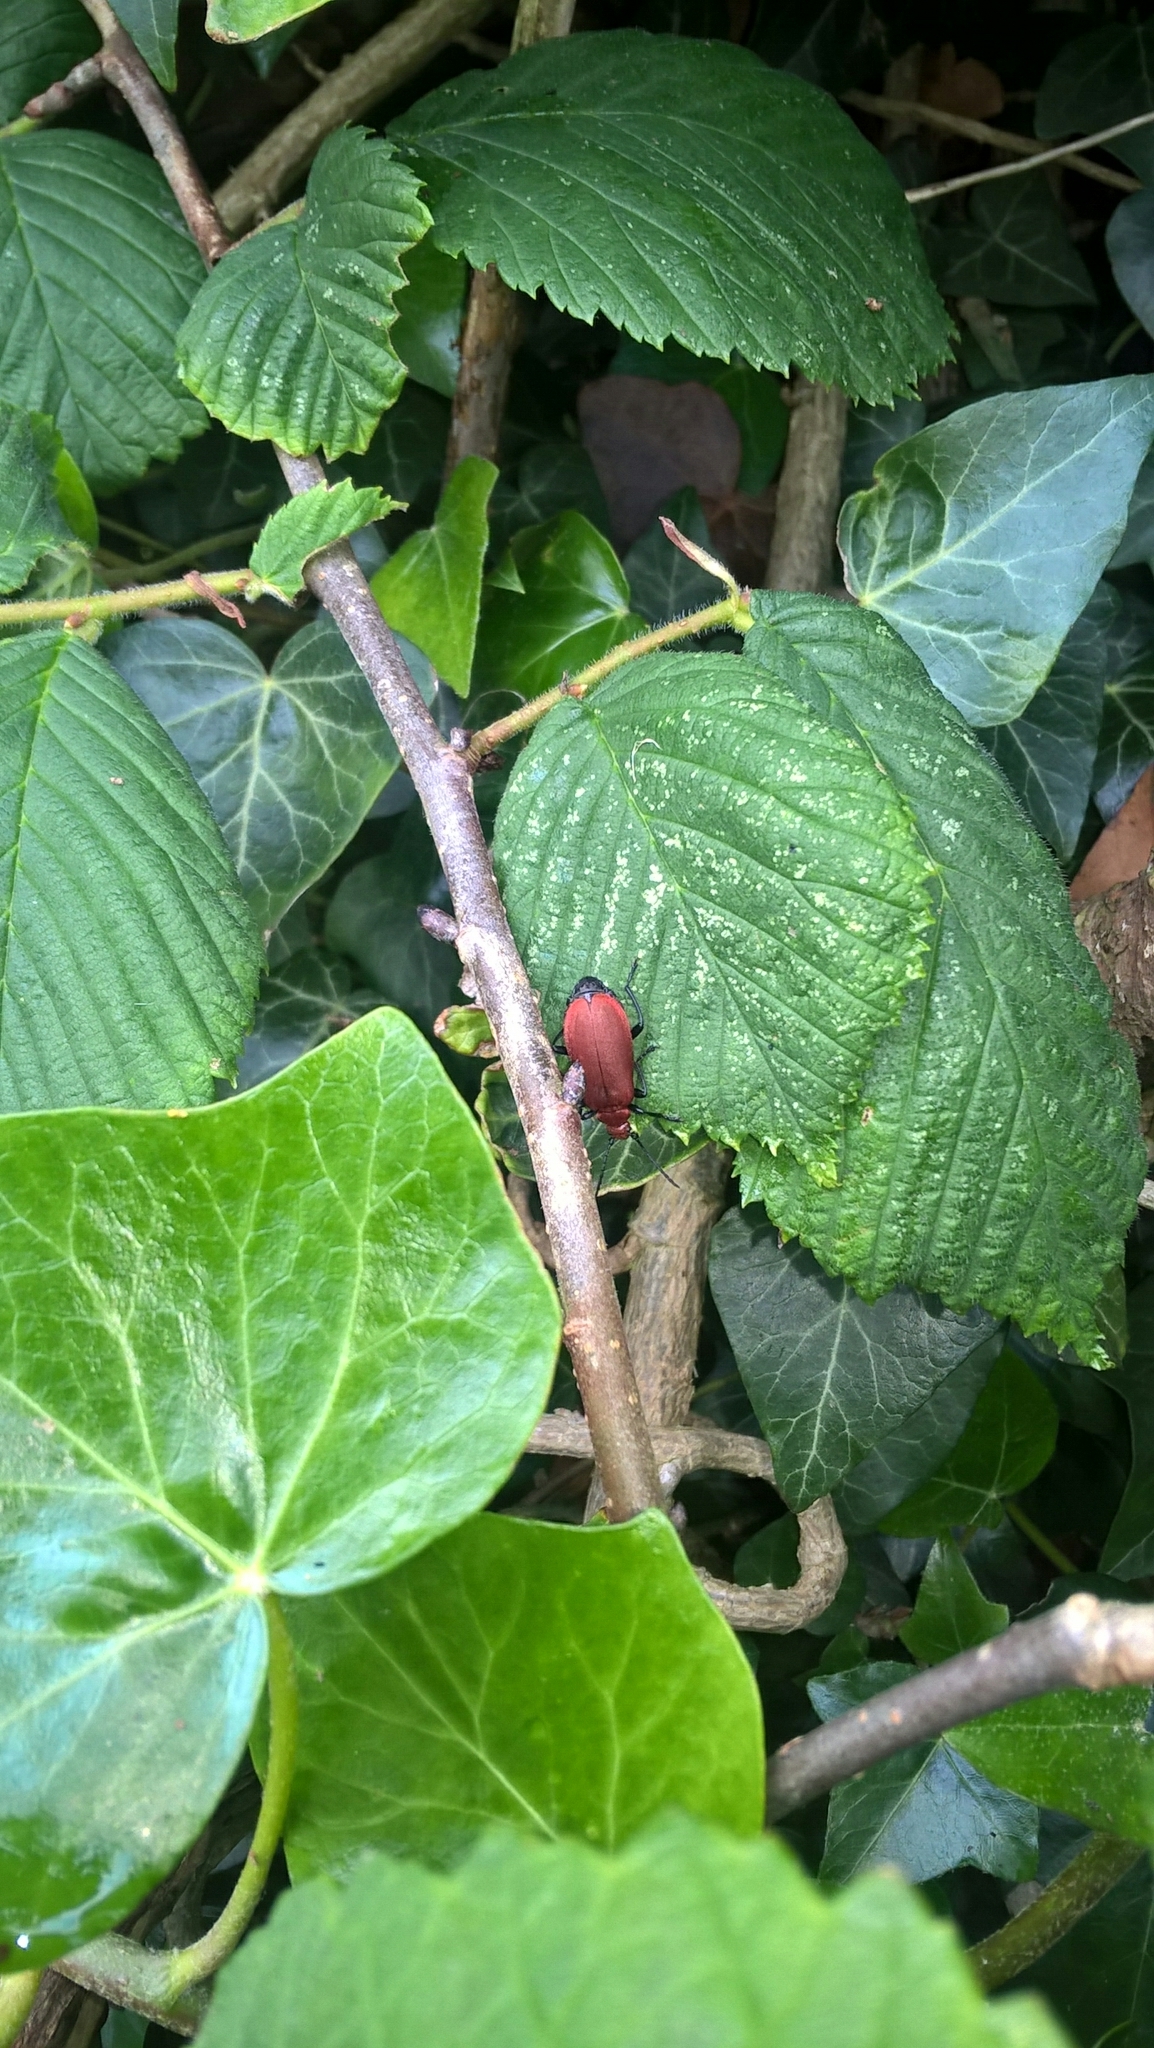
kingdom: Animalia
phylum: Arthropoda
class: Insecta
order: Coleoptera
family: Pyrochroidae
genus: Pyrochroa
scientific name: Pyrochroa serraticornis
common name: Red-headed cardinal beetle
